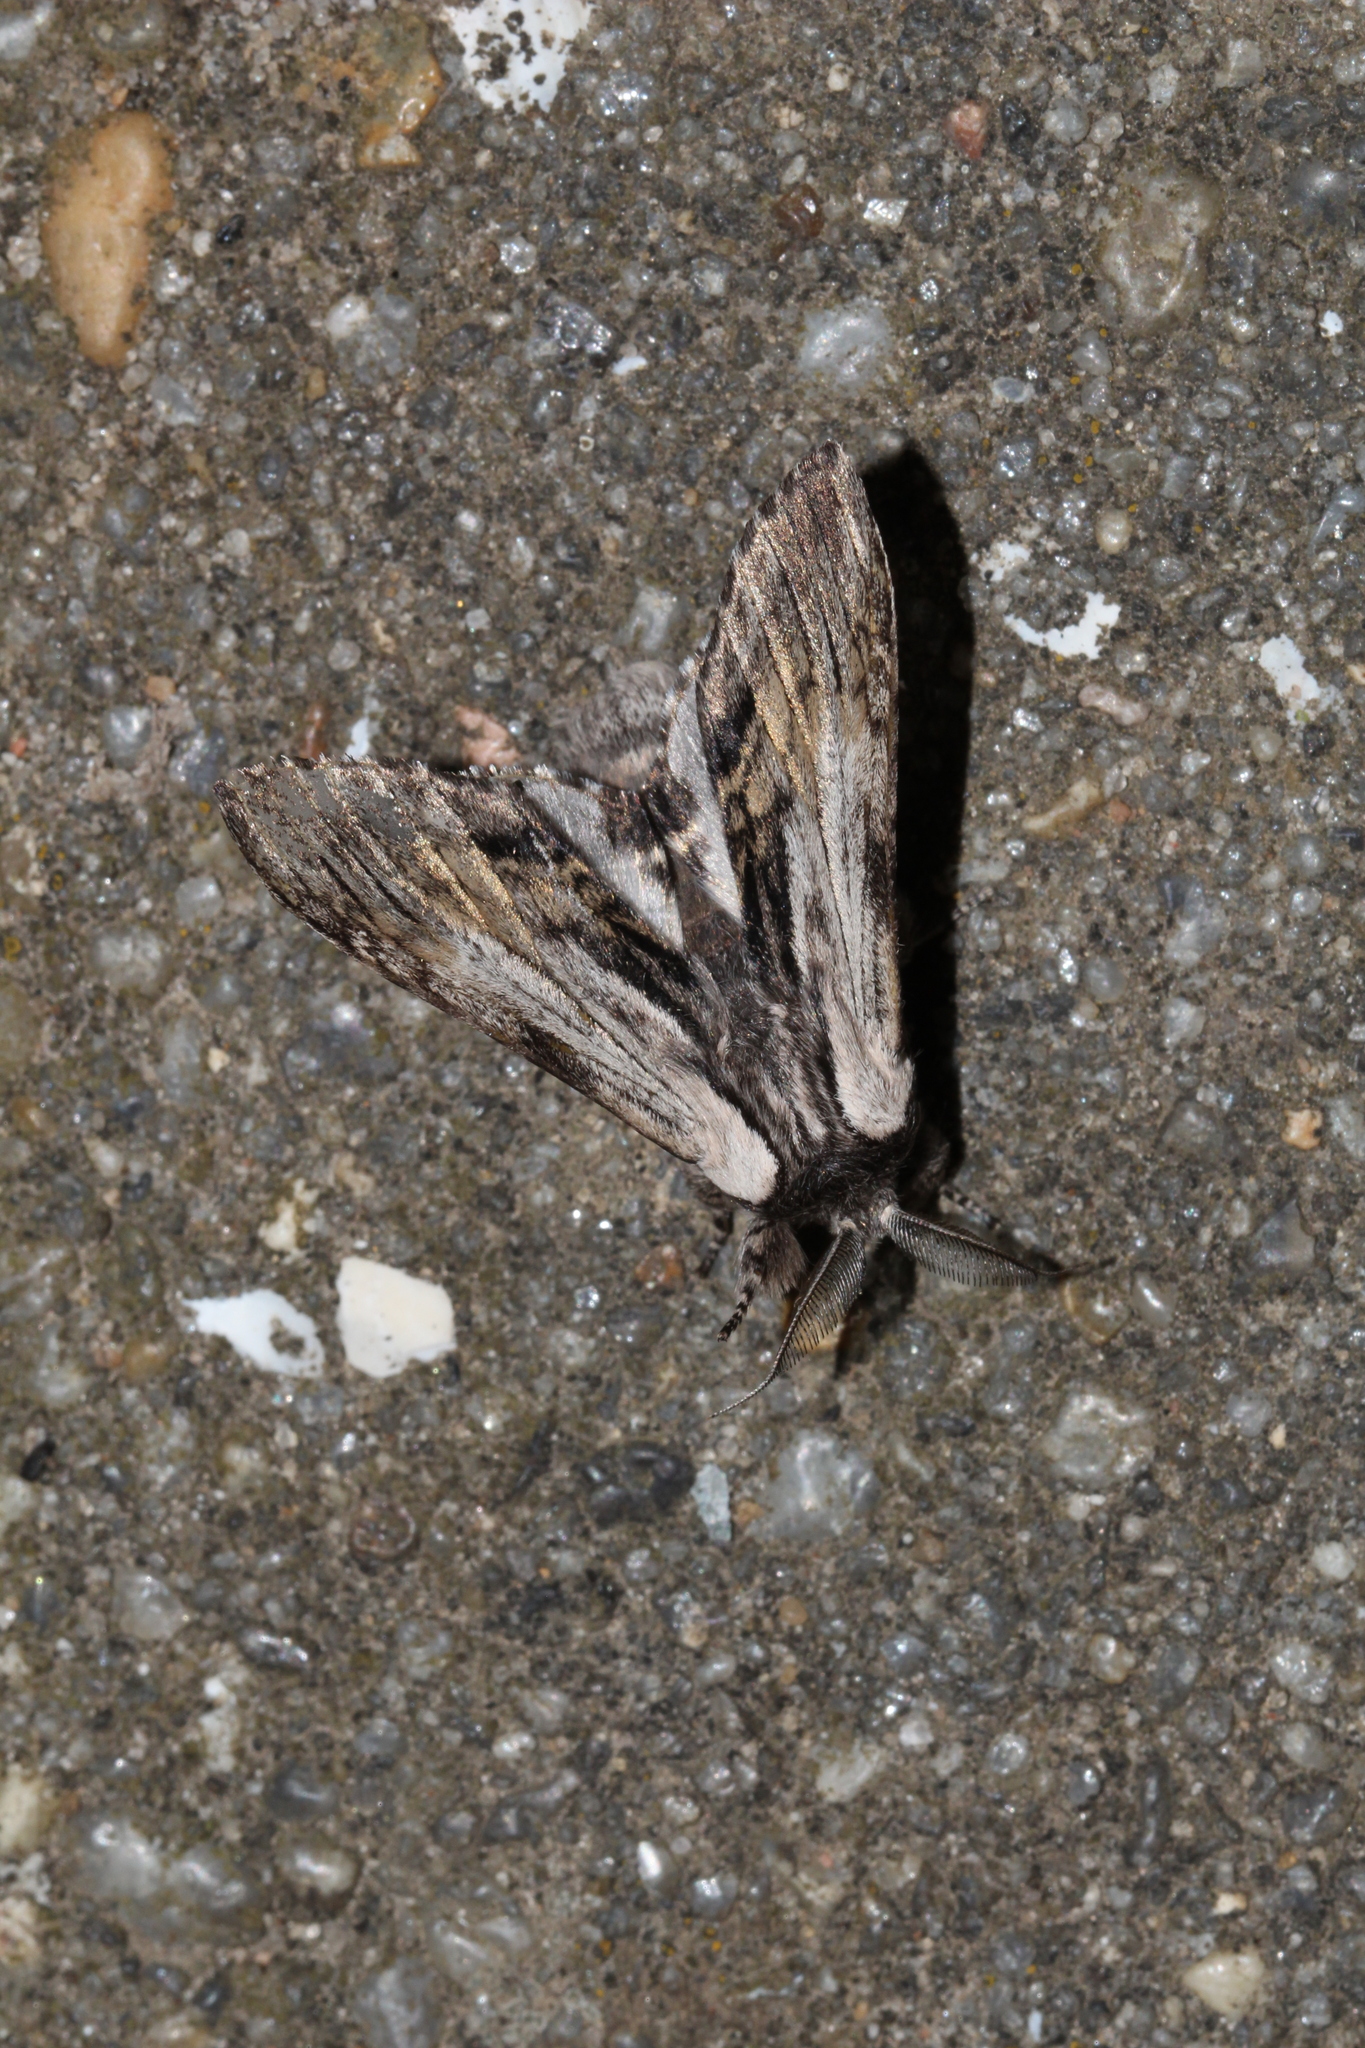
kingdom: Animalia
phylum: Arthropoda
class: Insecta
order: Lepidoptera
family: Notodontidae
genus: Harpyia
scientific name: Harpyia milhauseri
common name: Tawny prominent
